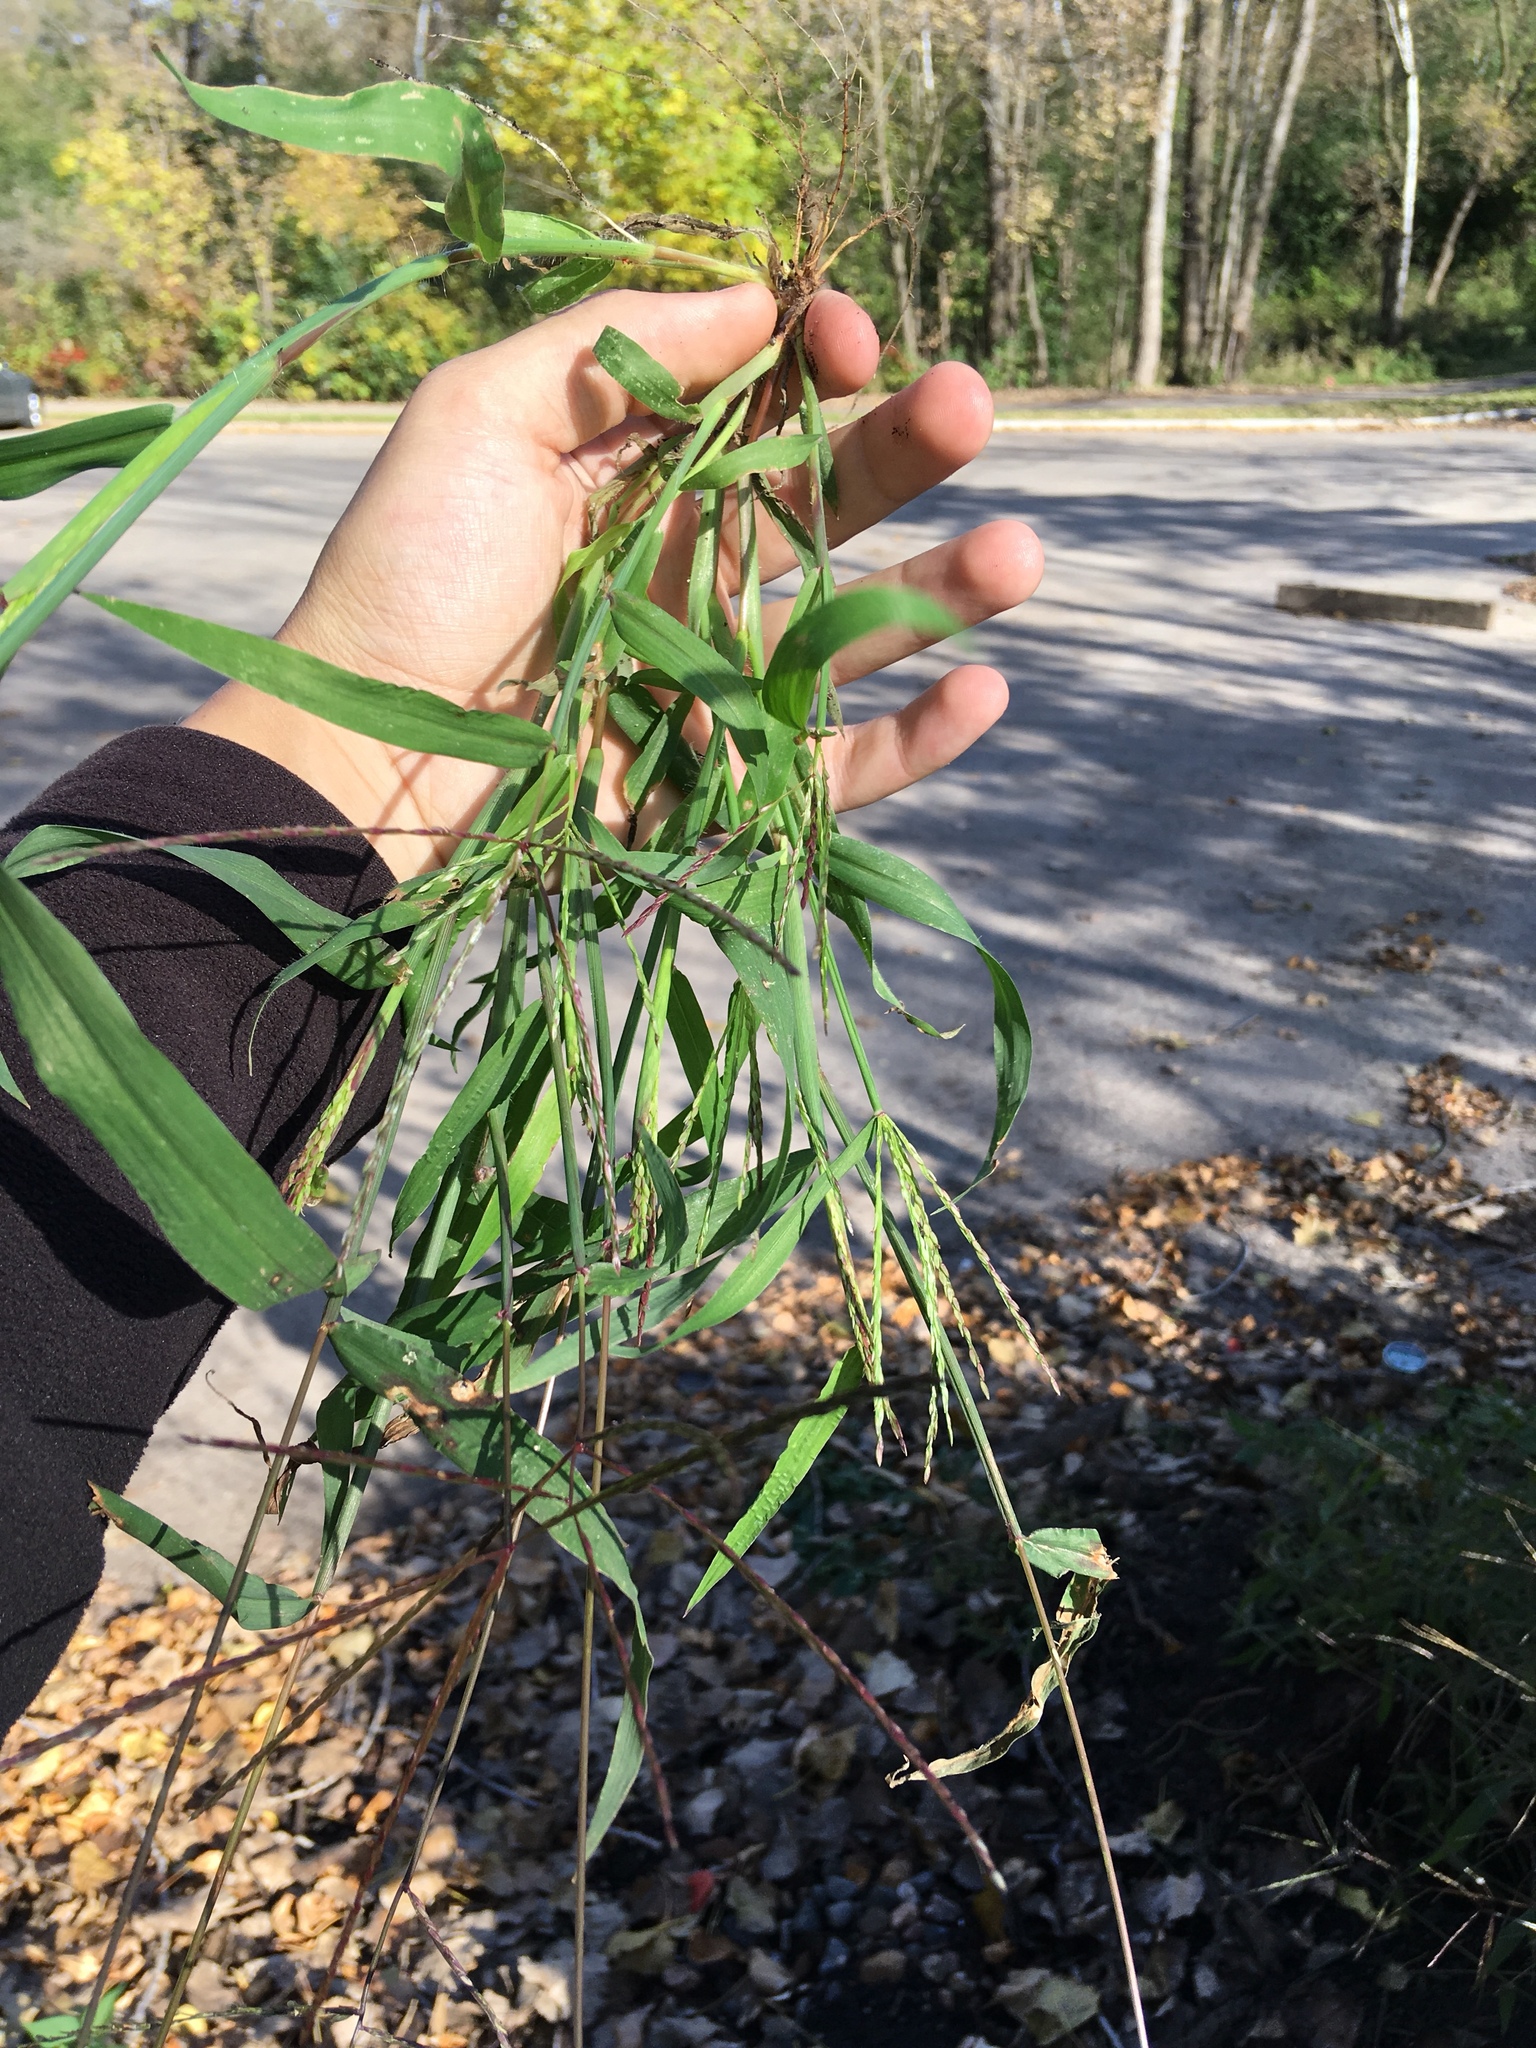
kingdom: Plantae
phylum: Tracheophyta
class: Liliopsida
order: Poales
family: Poaceae
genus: Digitaria
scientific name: Digitaria ischaemum
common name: Smooth crabgrass
